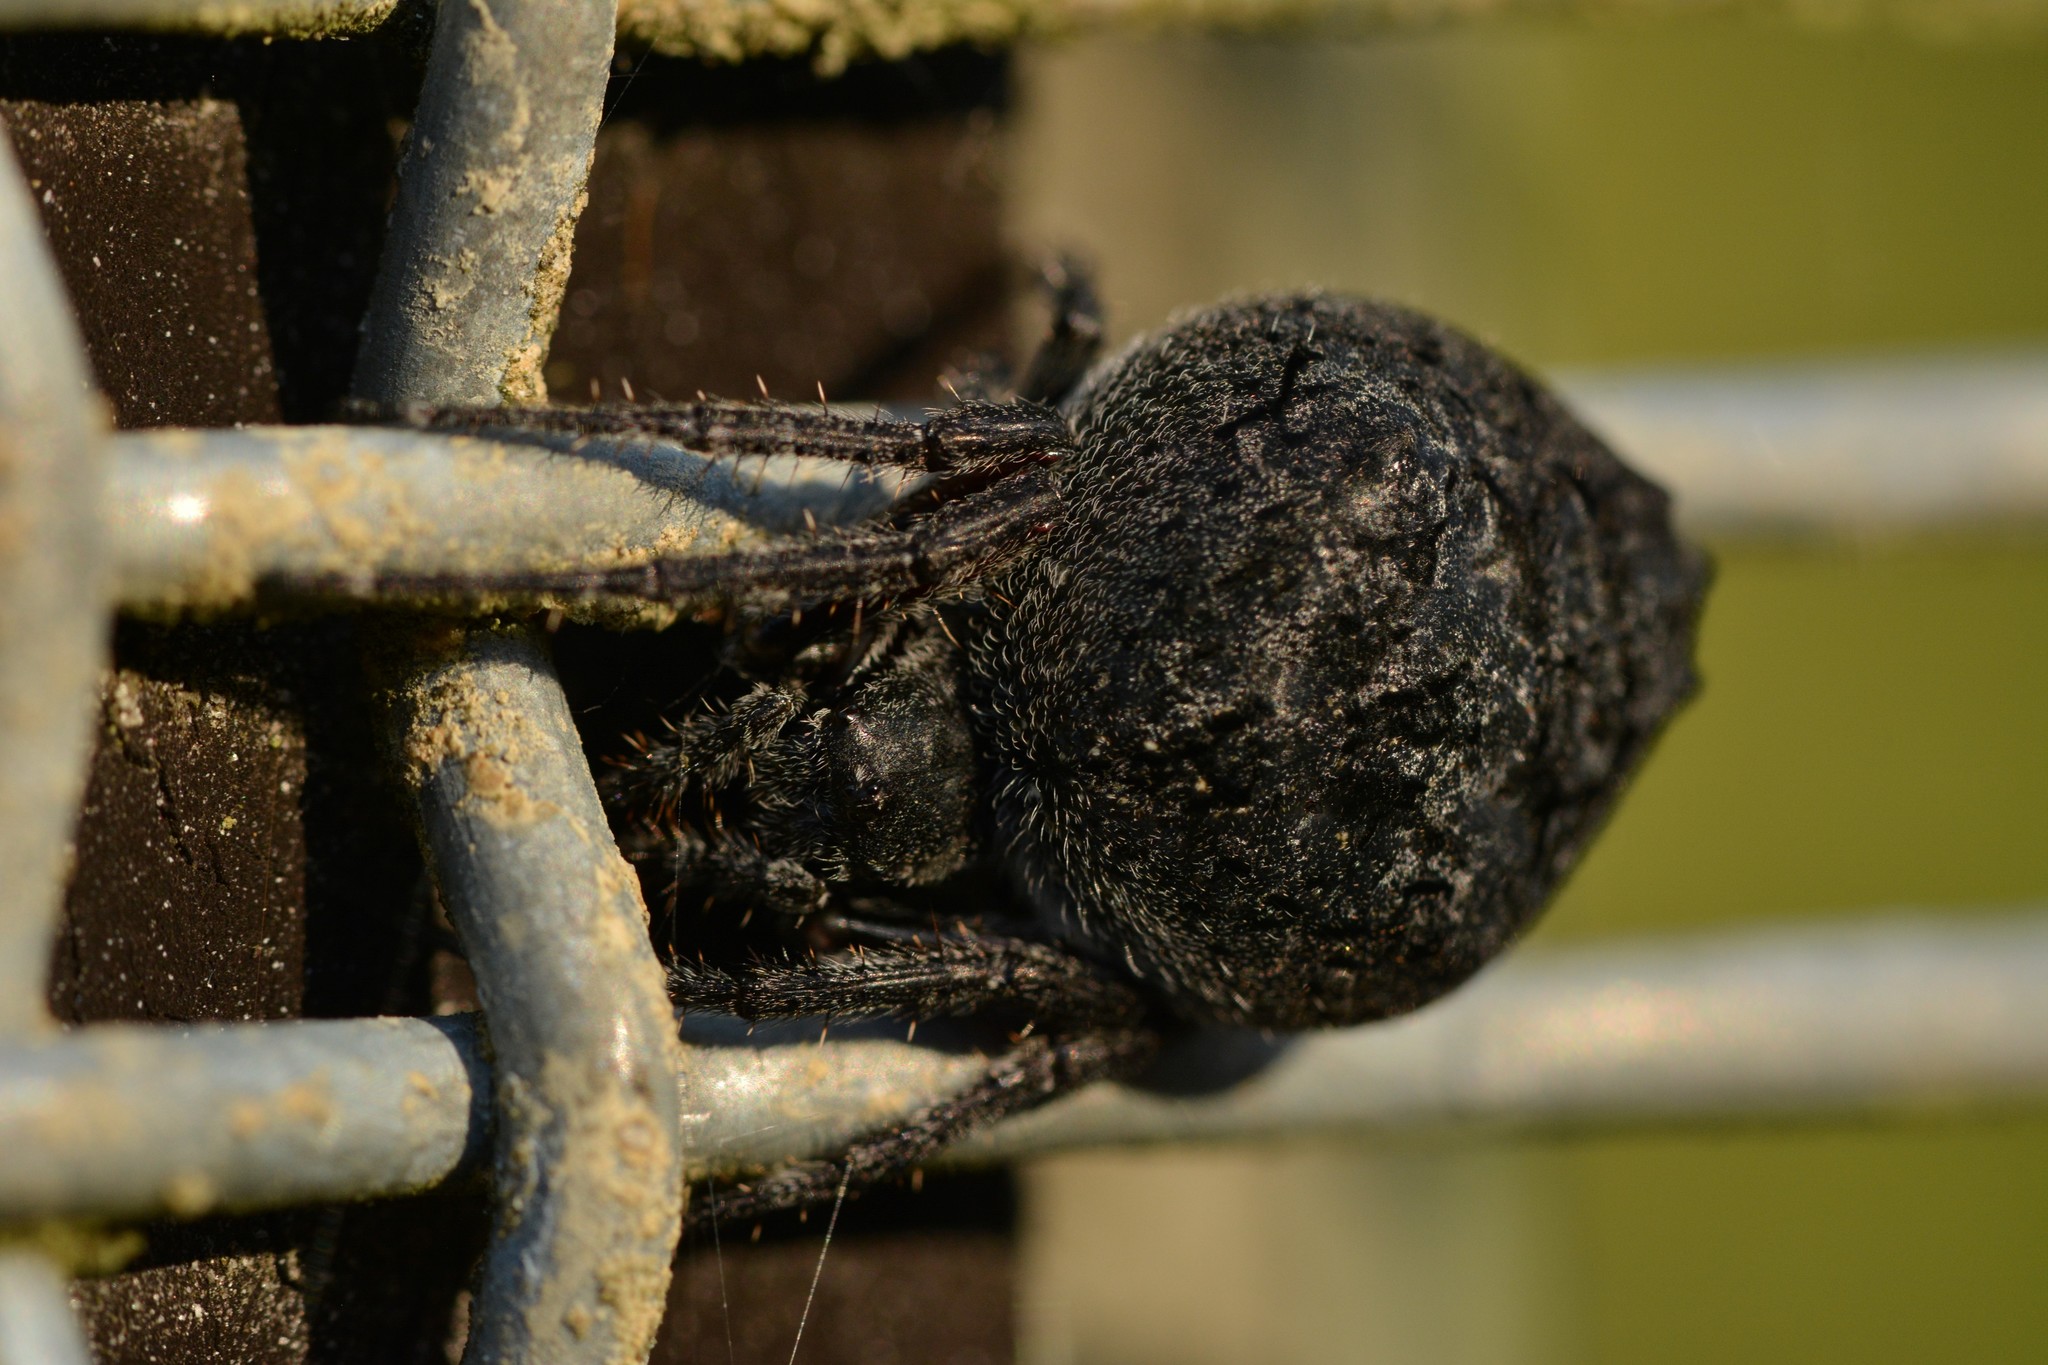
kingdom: Animalia
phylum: Arthropoda
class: Arachnida
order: Araneae
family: Araneidae
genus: Eriophora
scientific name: Eriophora pustulosa
